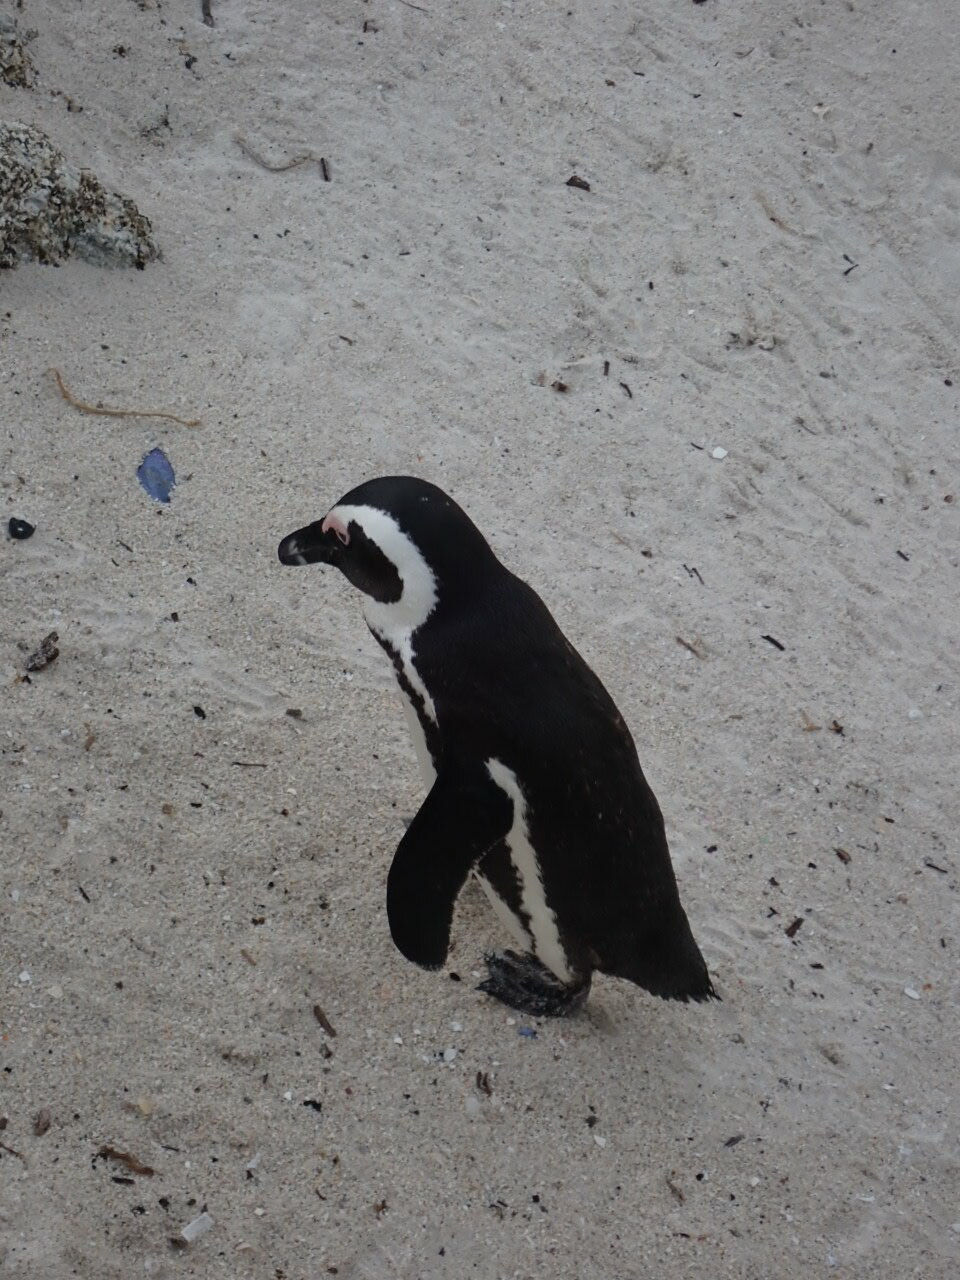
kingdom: Animalia
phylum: Chordata
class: Aves
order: Sphenisciformes
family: Spheniscidae
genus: Spheniscus
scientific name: Spheniscus demersus
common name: African penguin
